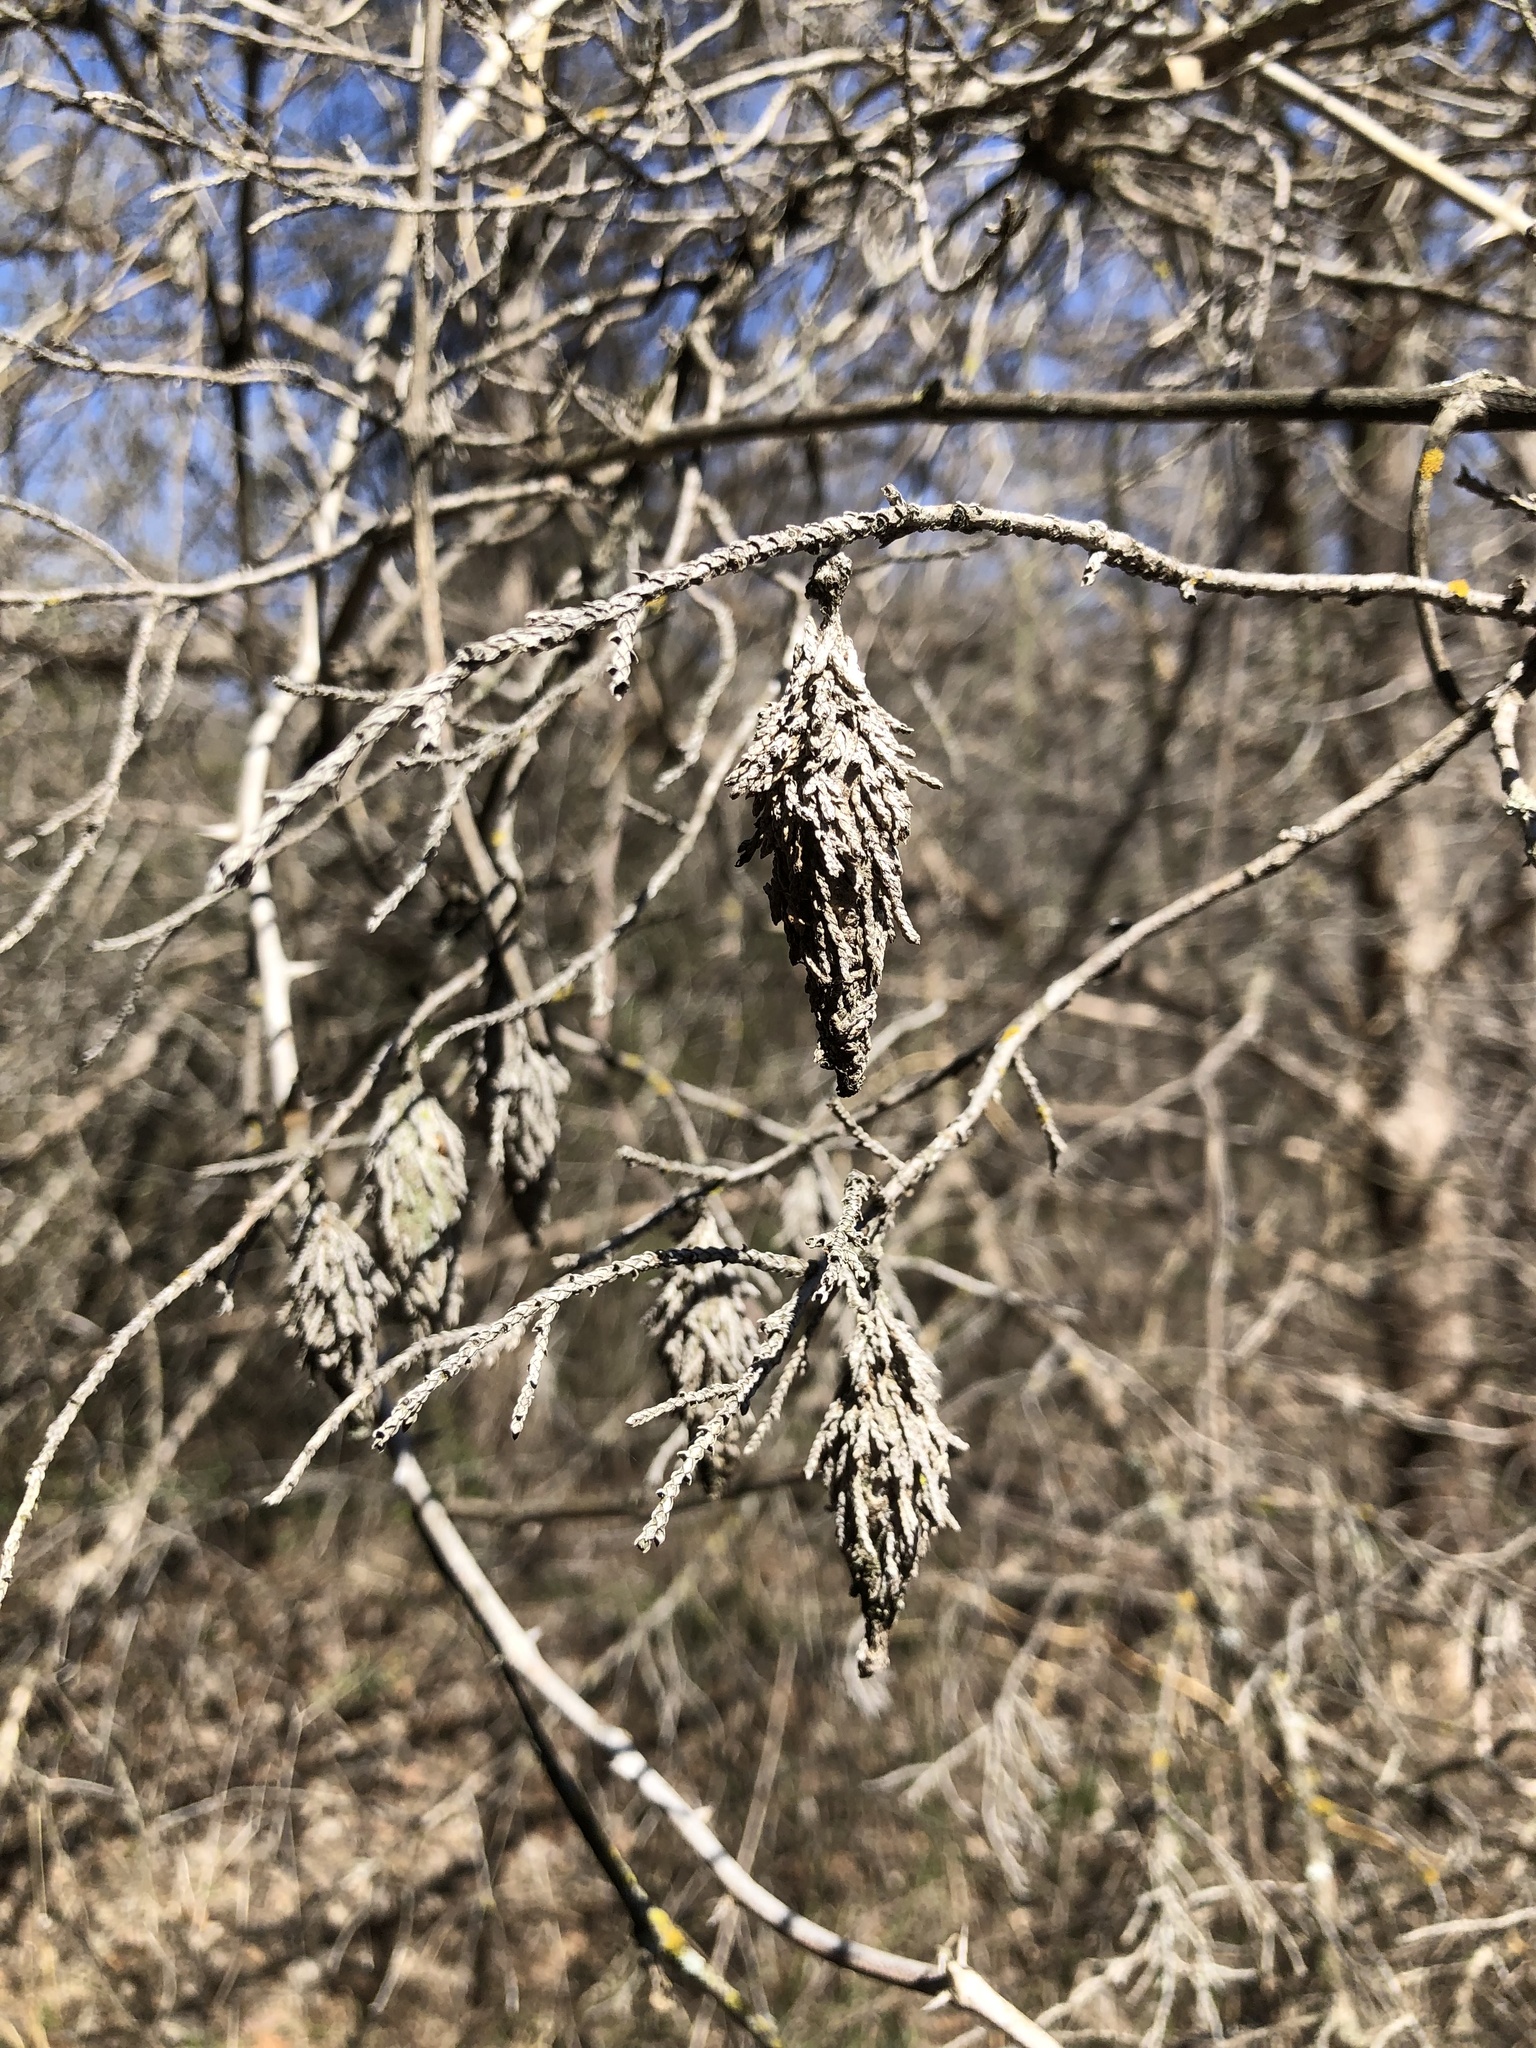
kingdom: Animalia
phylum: Arthropoda
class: Insecta
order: Lepidoptera
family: Psychidae
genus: Thyridopteryx
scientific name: Thyridopteryx ephemeraeformis
